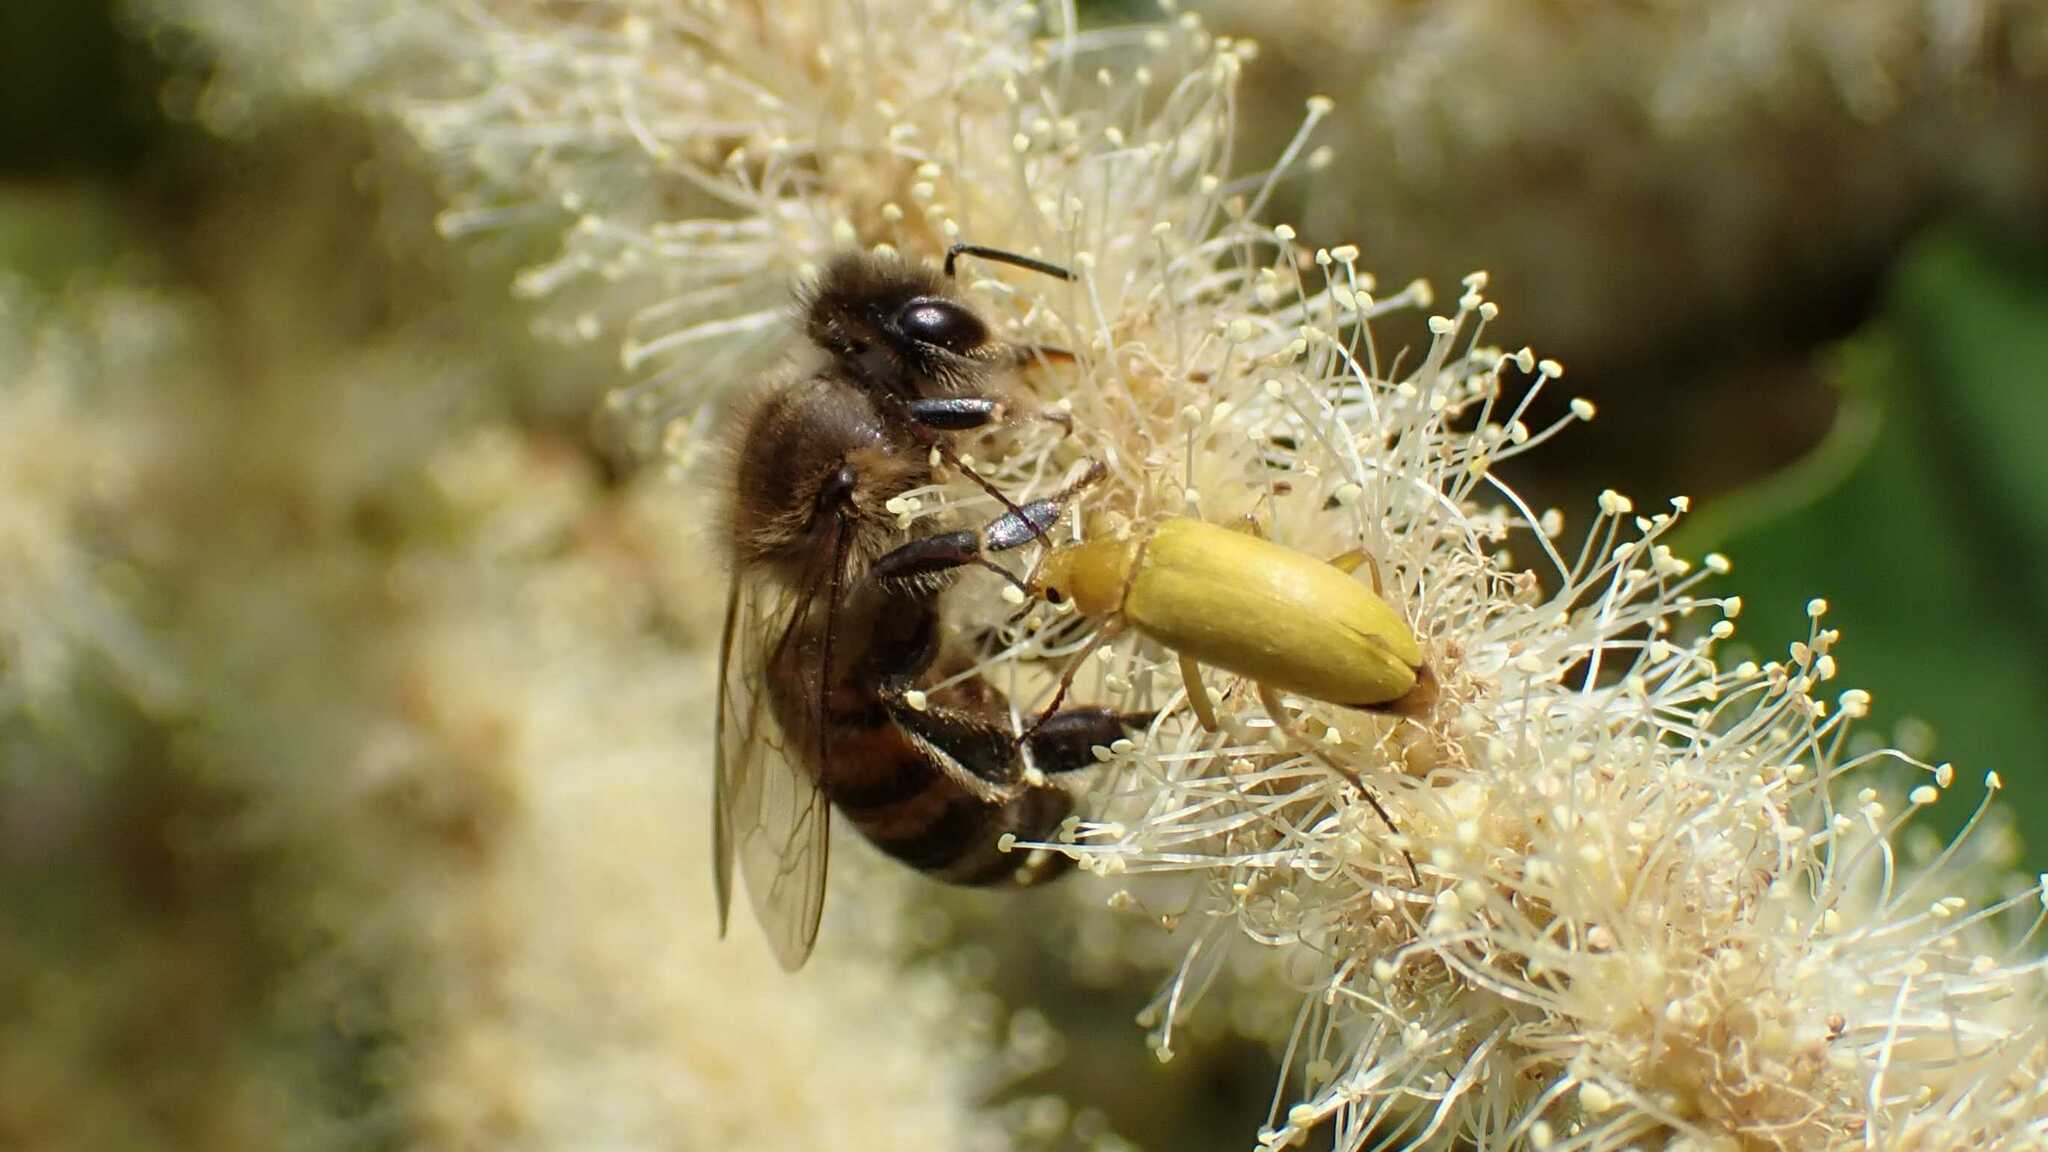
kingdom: Animalia
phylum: Arthropoda
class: Insecta
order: Hymenoptera
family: Apidae
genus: Apis
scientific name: Apis mellifera
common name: Honey bee
